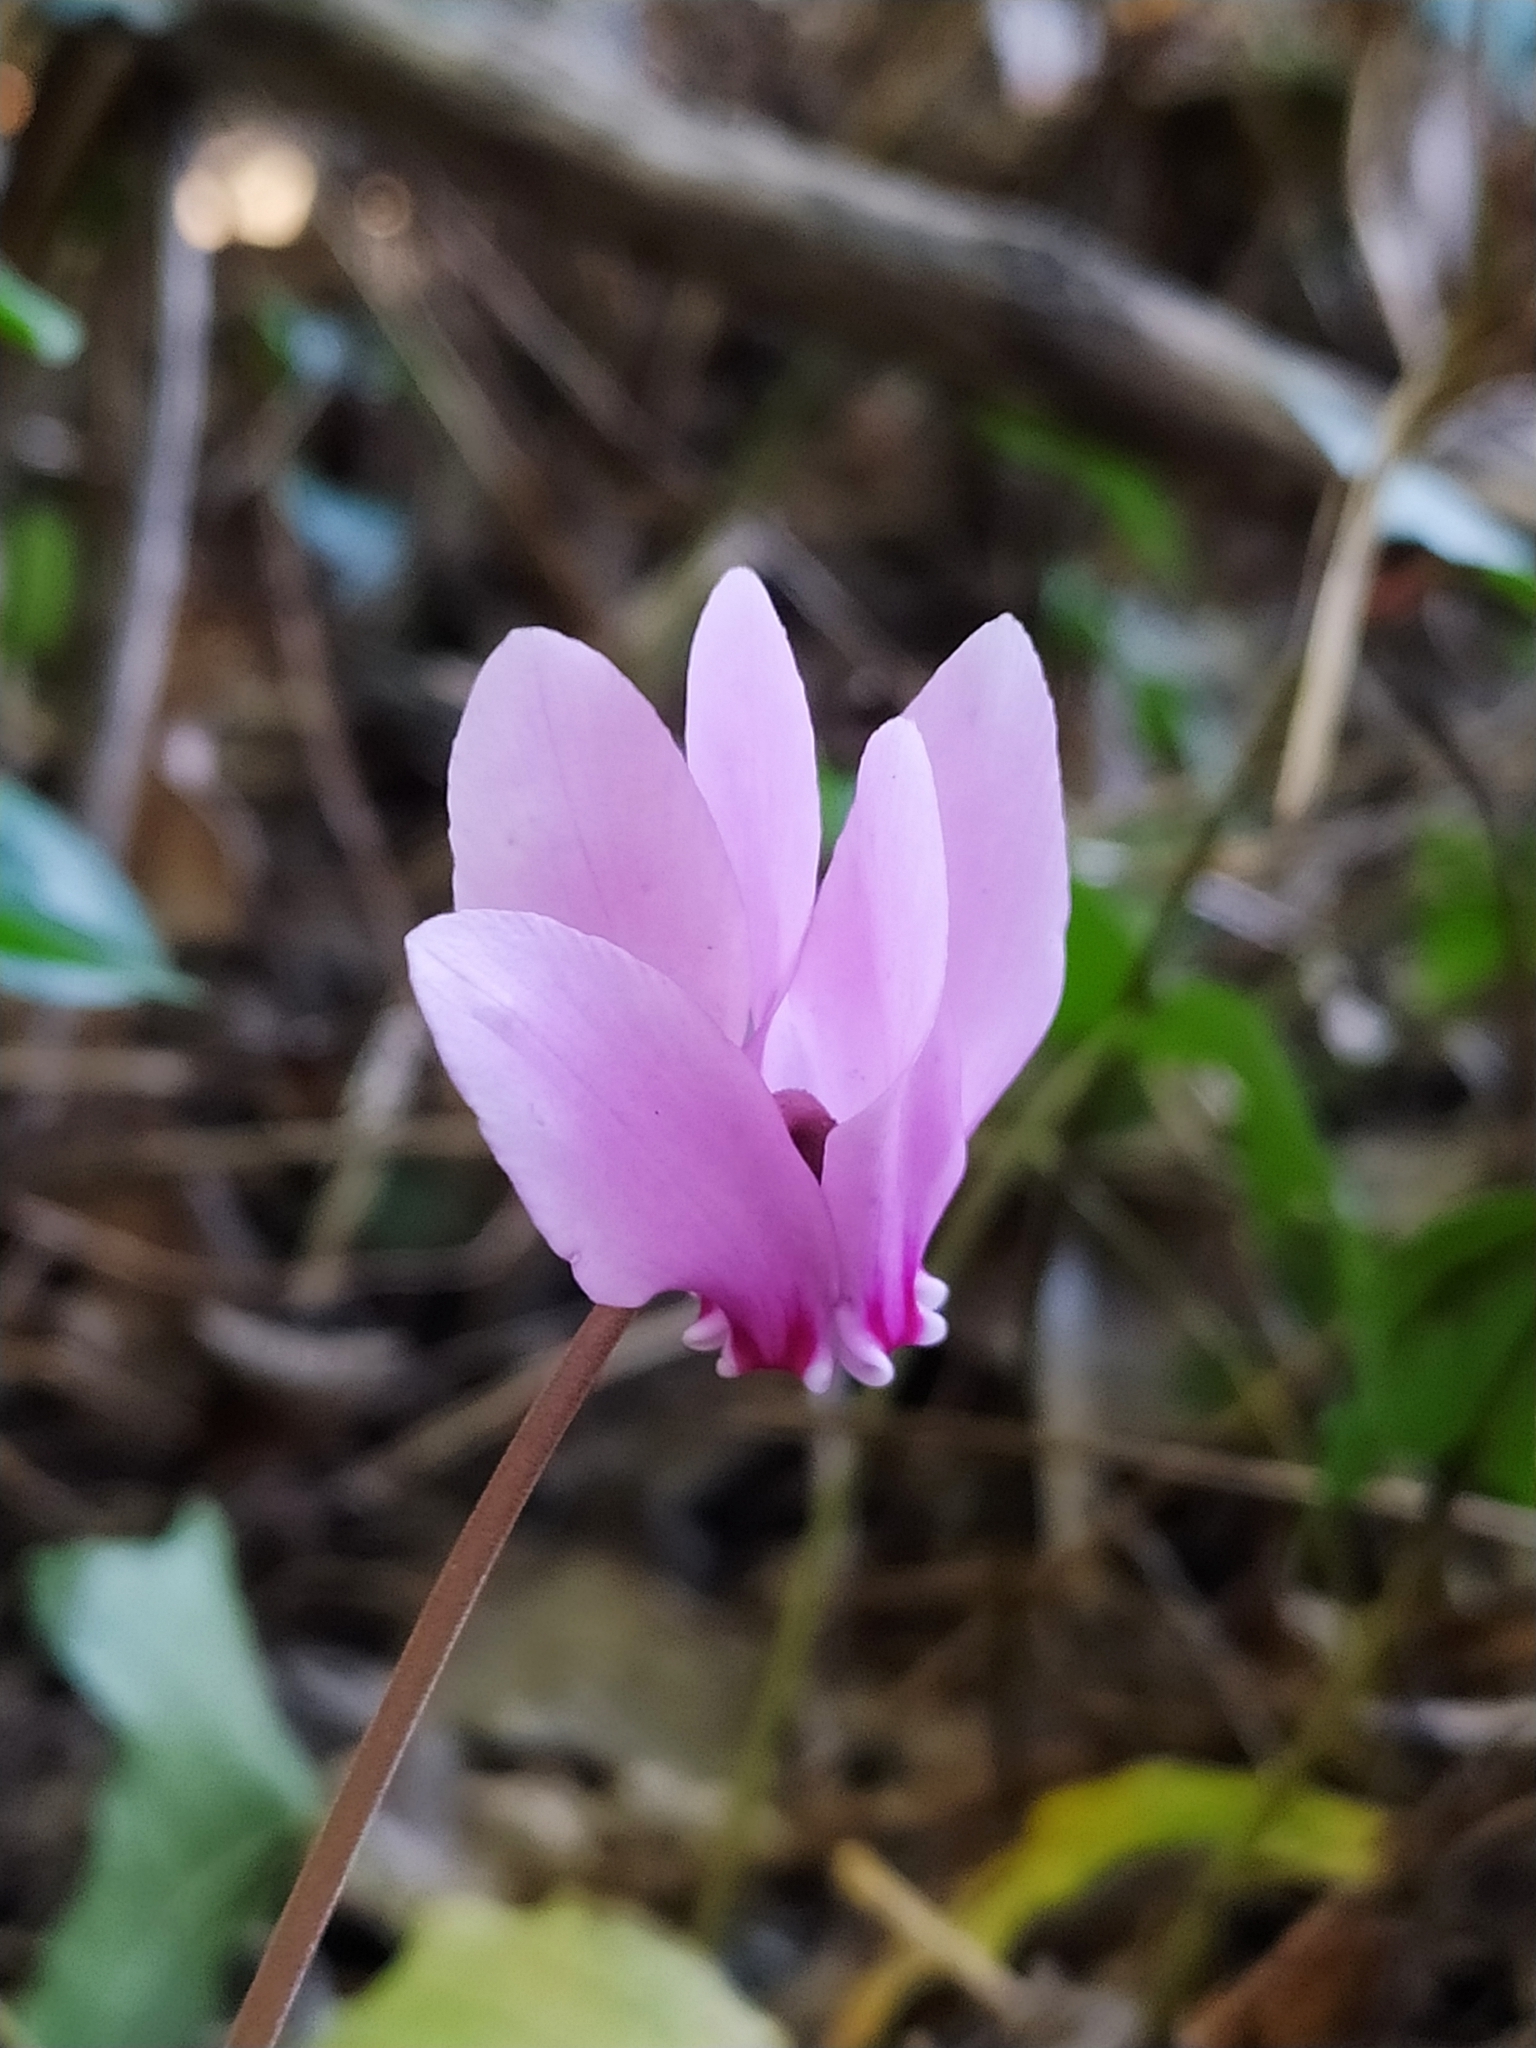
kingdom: Plantae
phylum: Tracheophyta
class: Magnoliopsida
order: Ericales
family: Primulaceae
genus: Cyclamen
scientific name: Cyclamen hederifolium
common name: Sowbread
